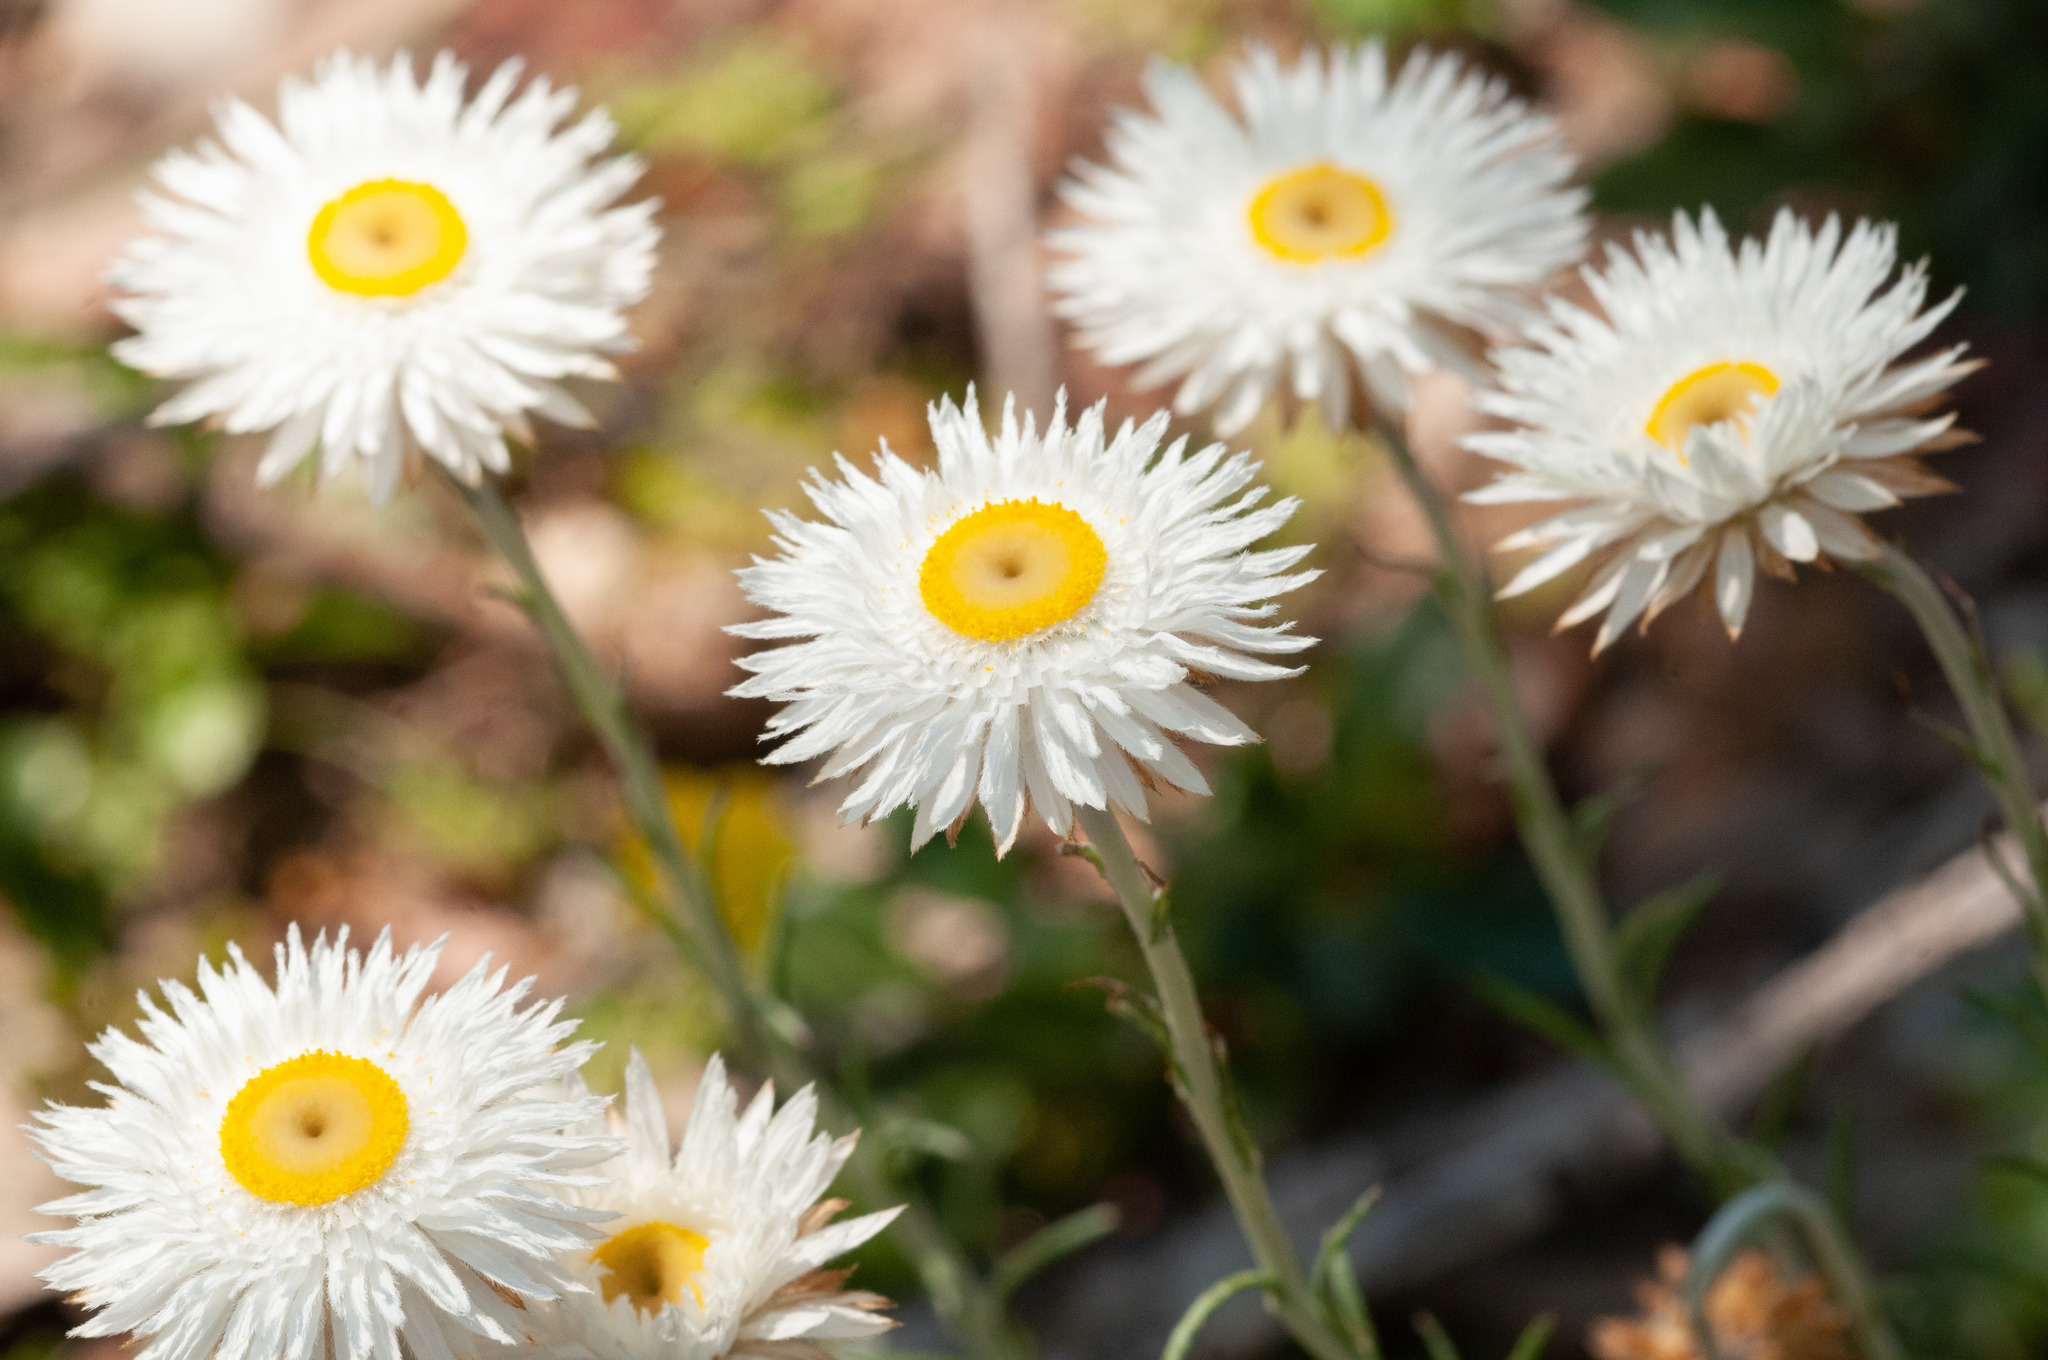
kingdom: Plantae
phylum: Tracheophyta
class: Magnoliopsida
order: Asterales
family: Asteraceae
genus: Chrysocephalum
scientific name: Chrysocephalum baxteri
